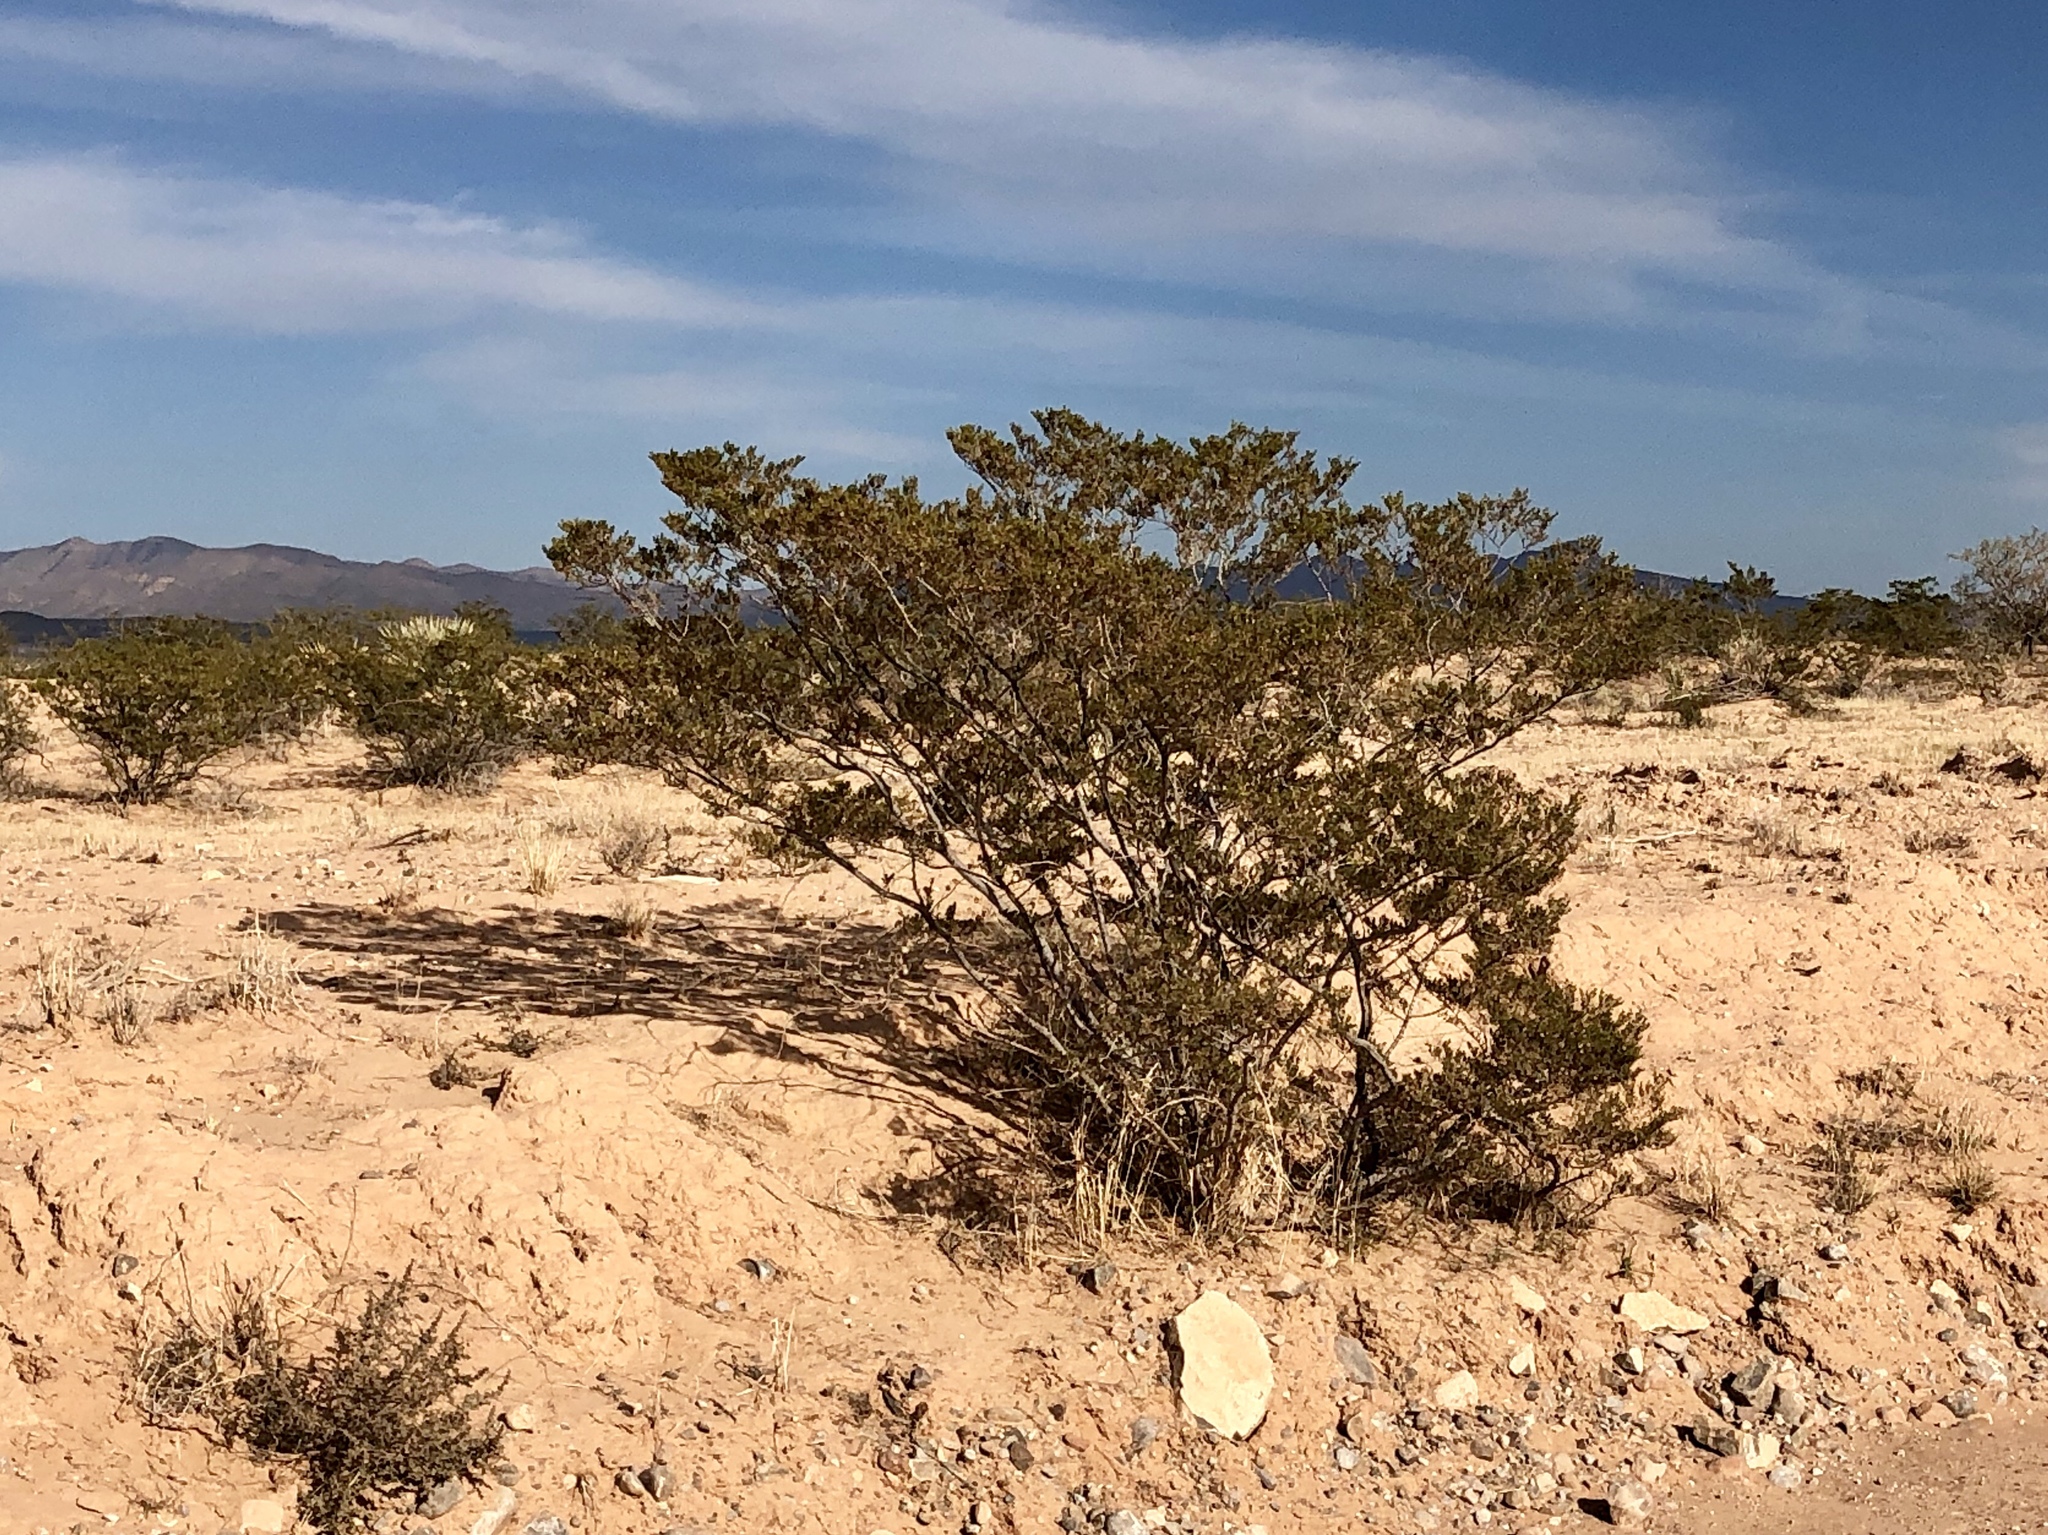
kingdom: Plantae
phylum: Tracheophyta
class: Magnoliopsida
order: Zygophyllales
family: Zygophyllaceae
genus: Larrea
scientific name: Larrea tridentata
